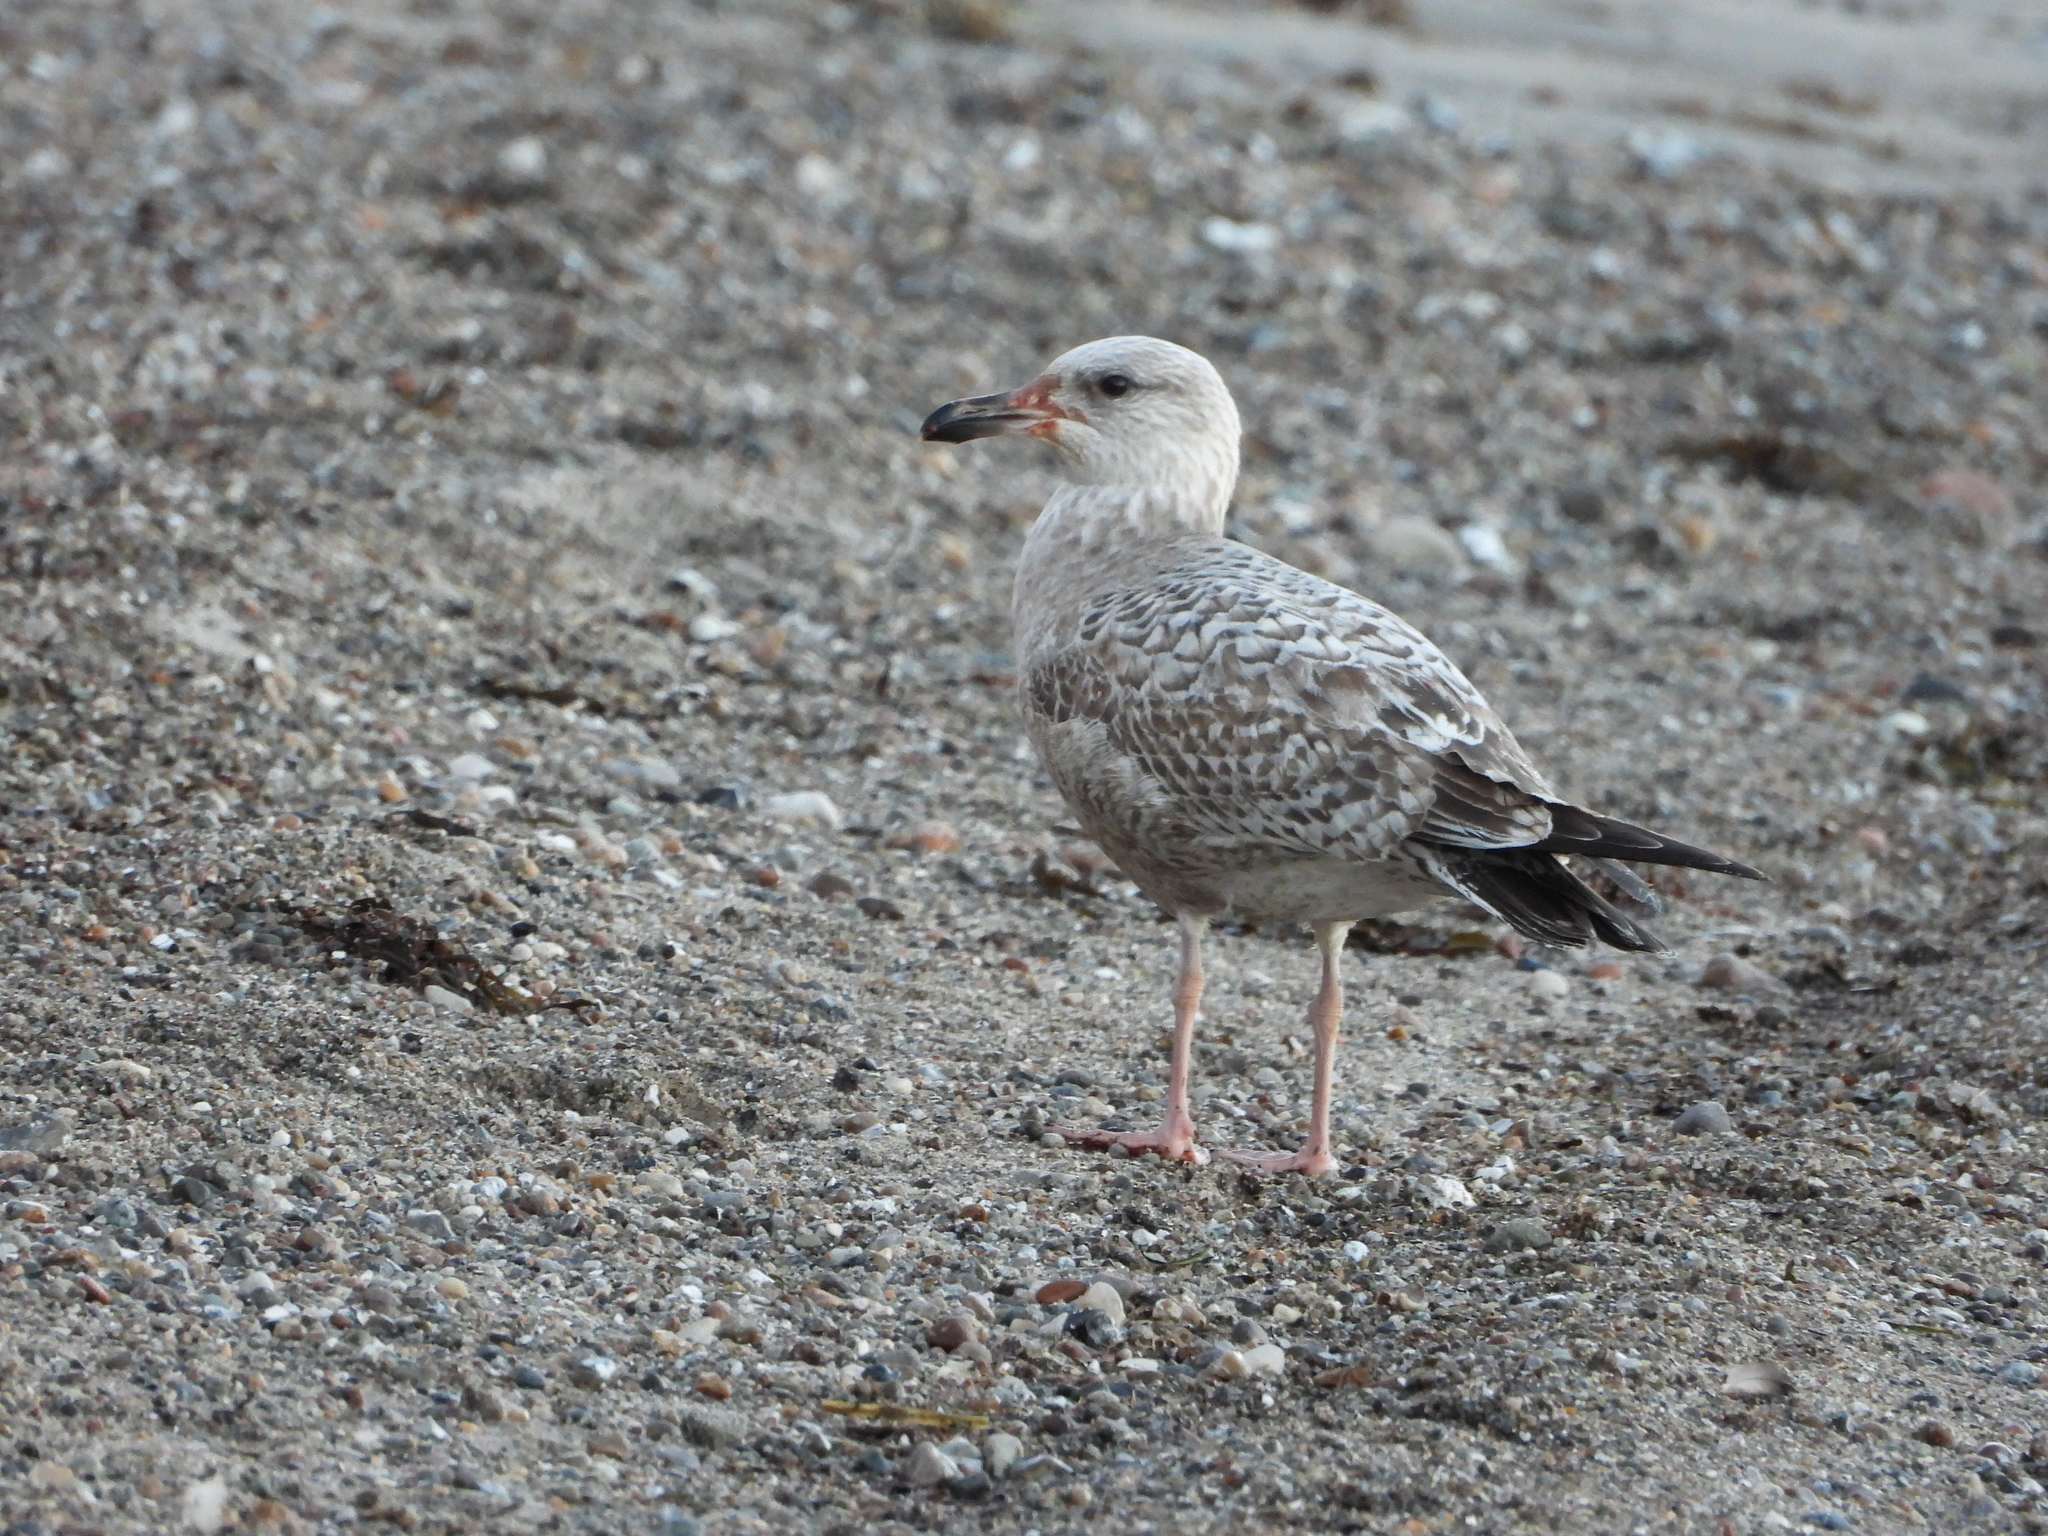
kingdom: Animalia
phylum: Chordata
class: Aves
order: Charadriiformes
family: Laridae
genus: Larus
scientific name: Larus argentatus
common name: Herring gull
